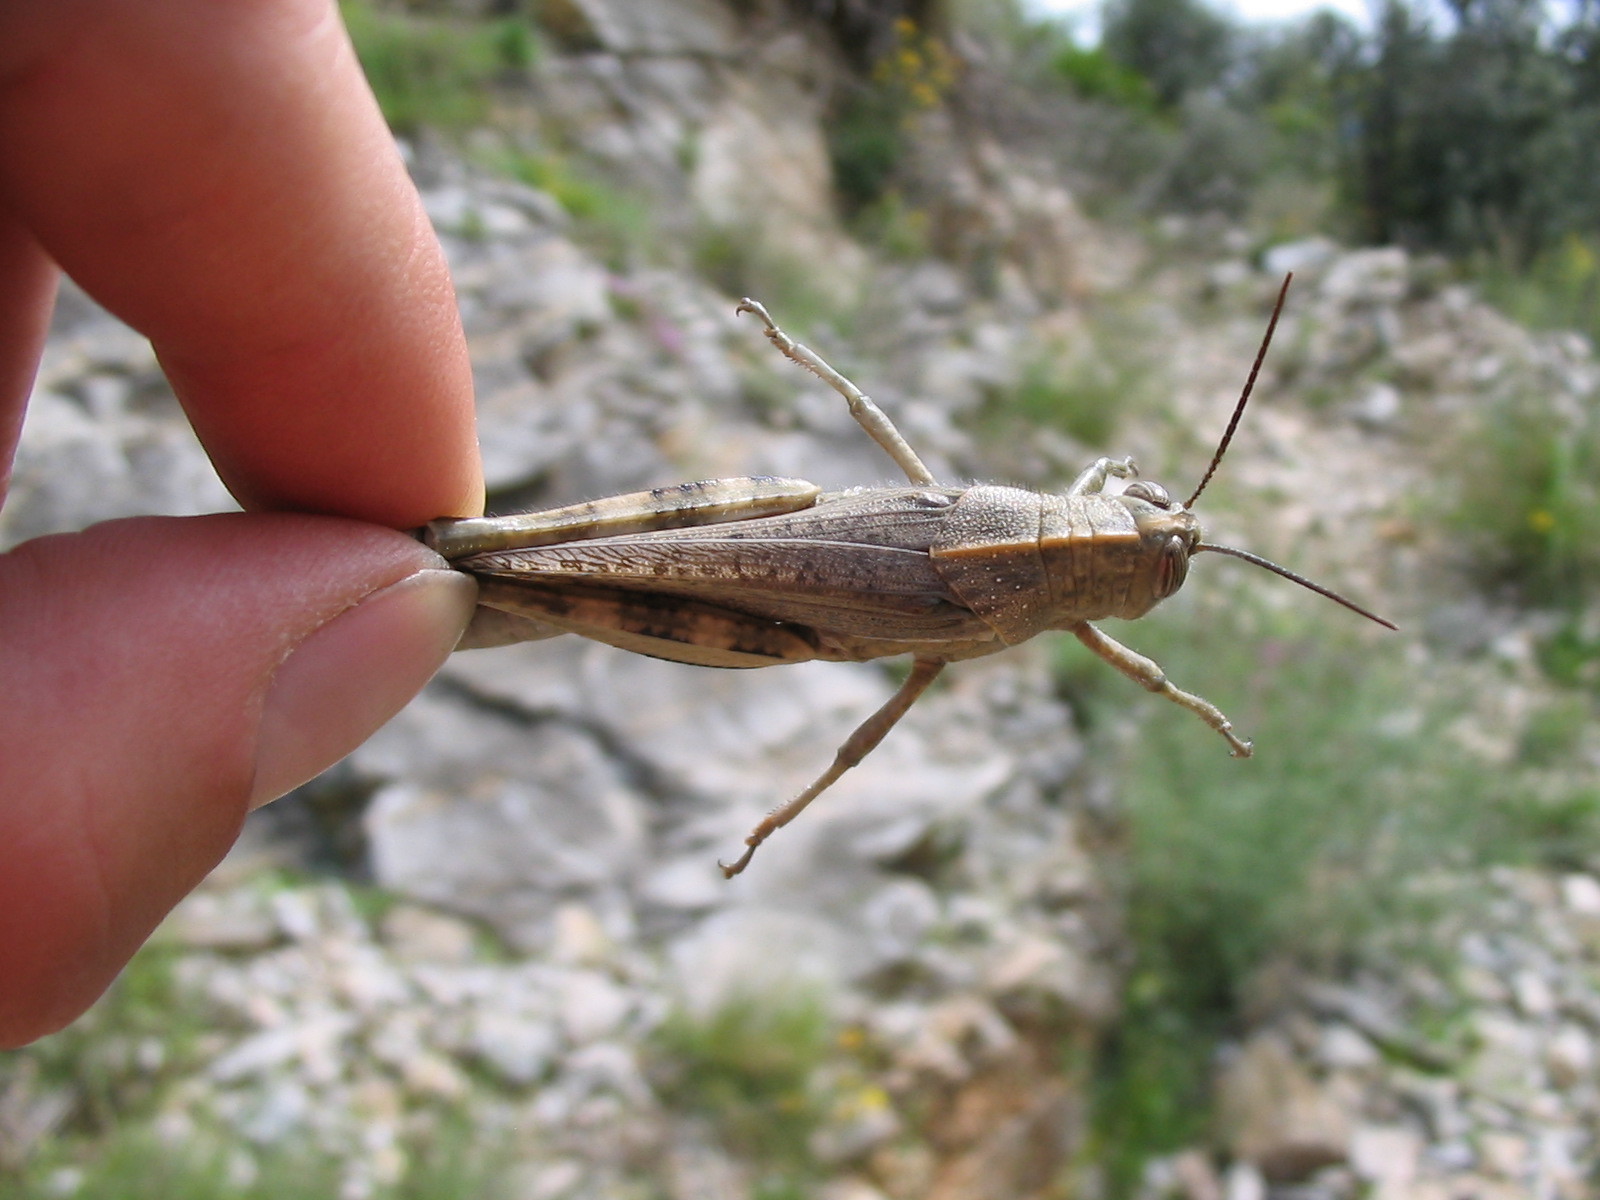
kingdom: Animalia
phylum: Arthropoda
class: Insecta
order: Orthoptera
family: Acrididae
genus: Anacridium
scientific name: Anacridium aegyptium
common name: Egyptian grasshopper
